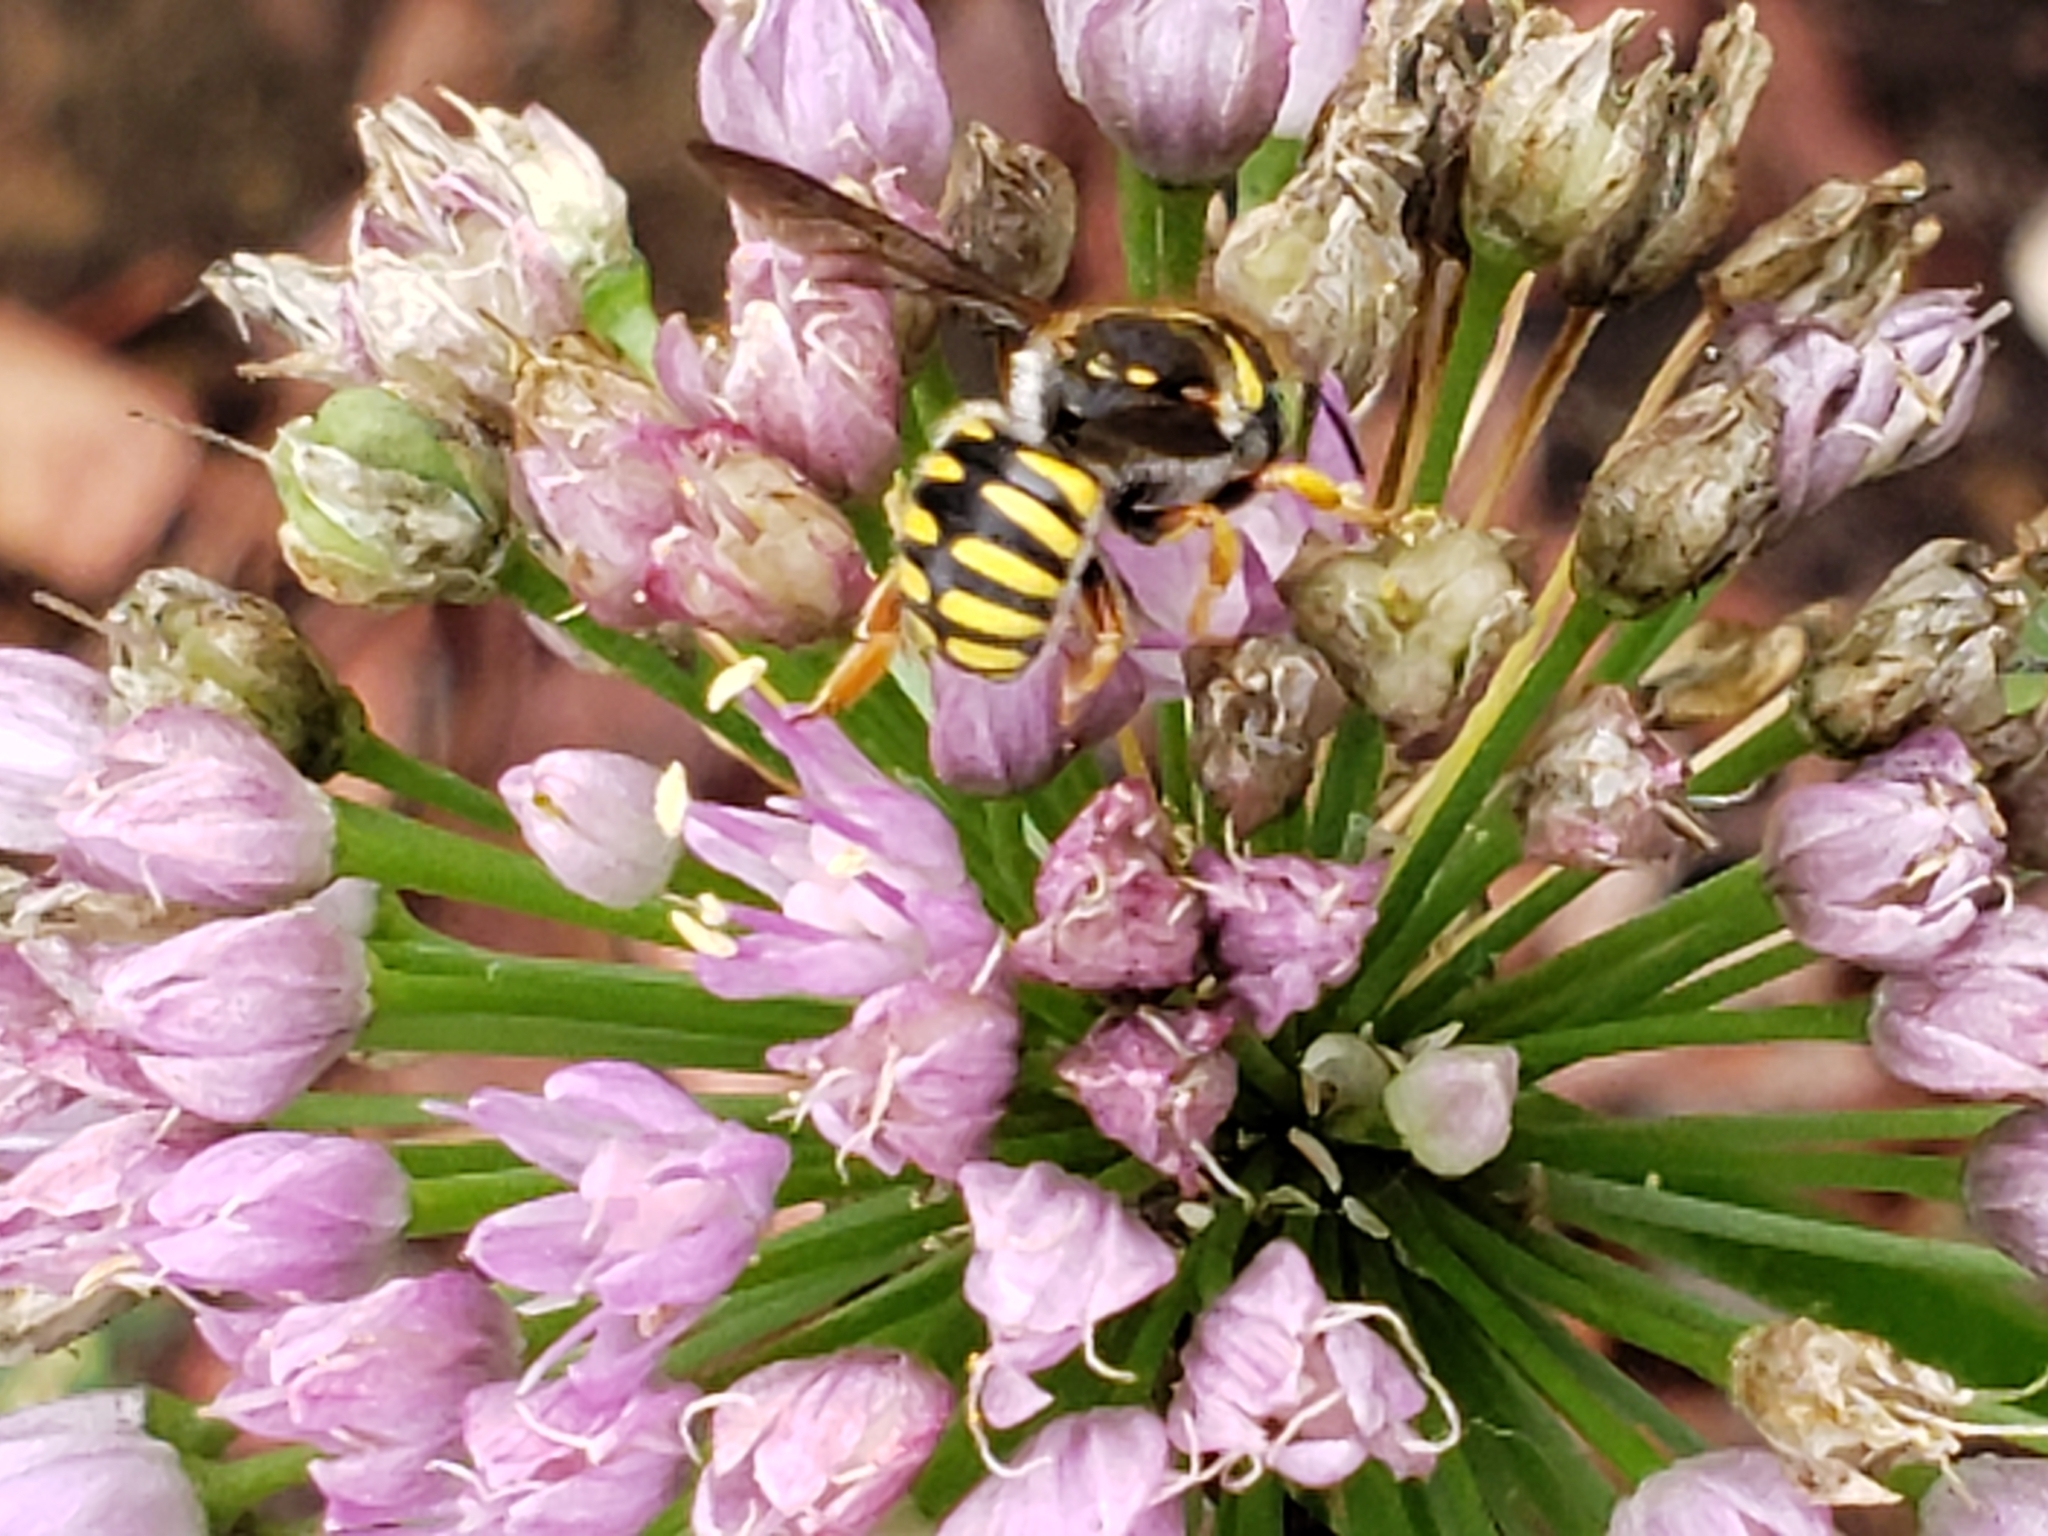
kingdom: Animalia
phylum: Arthropoda
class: Insecta
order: Hymenoptera
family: Megachilidae
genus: Anthidium
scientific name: Anthidium oblongatum
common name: Oblong wool carder bee
